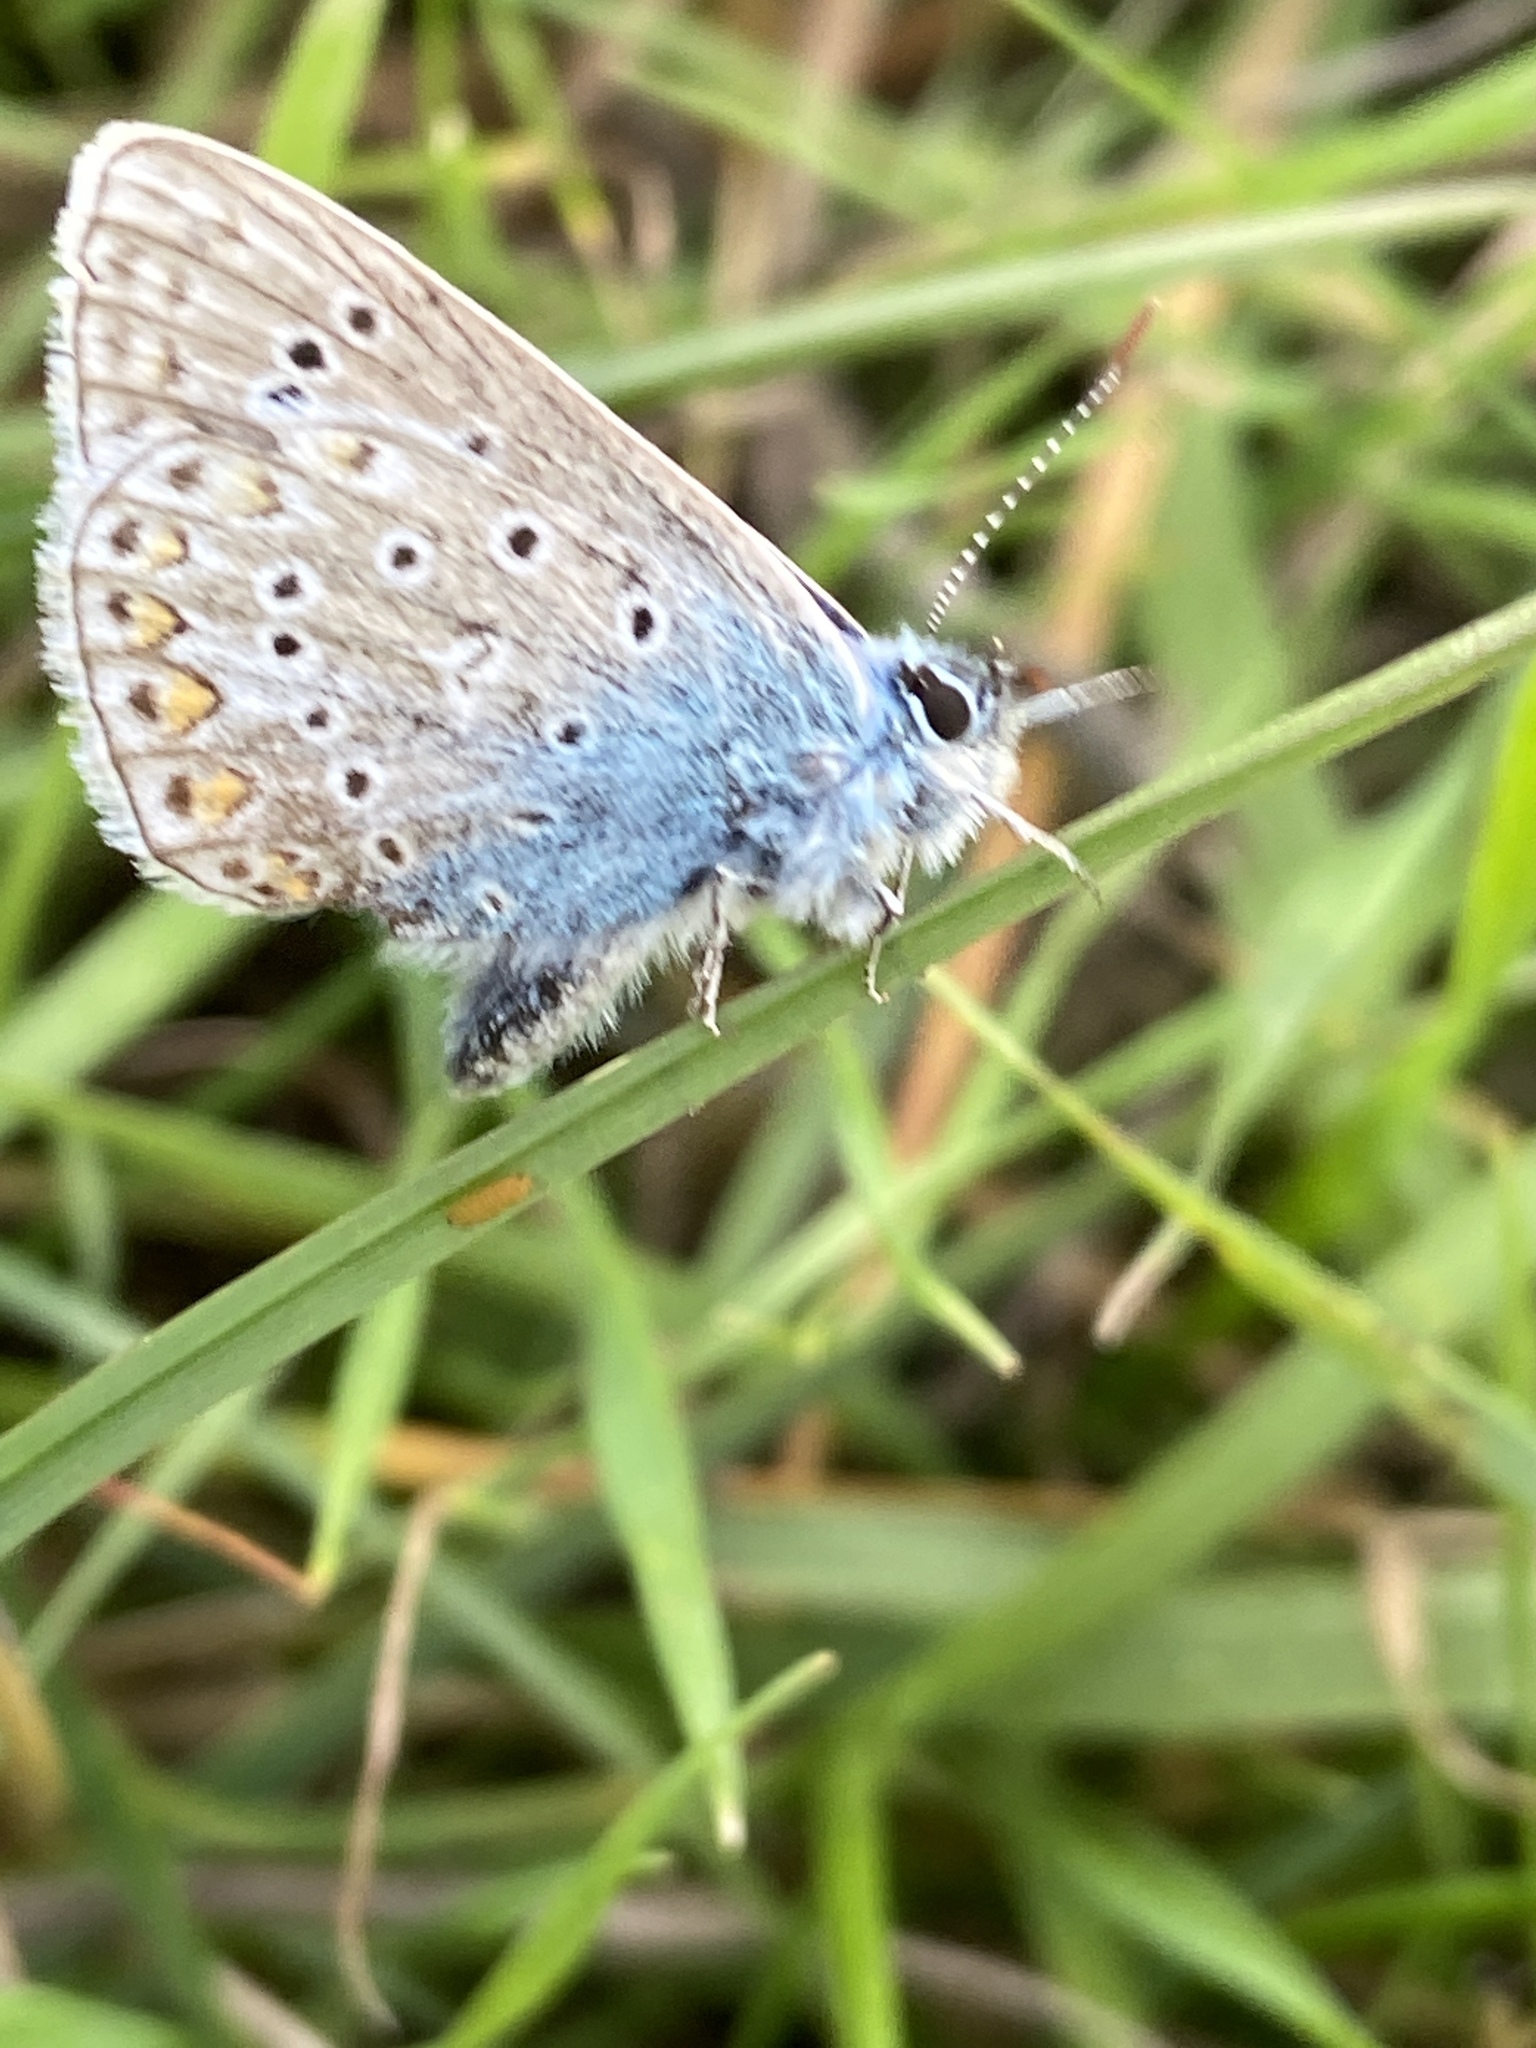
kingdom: Animalia
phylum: Arthropoda
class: Insecta
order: Lepidoptera
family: Lycaenidae
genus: Polyommatus
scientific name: Polyommatus icarus
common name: Common blue
